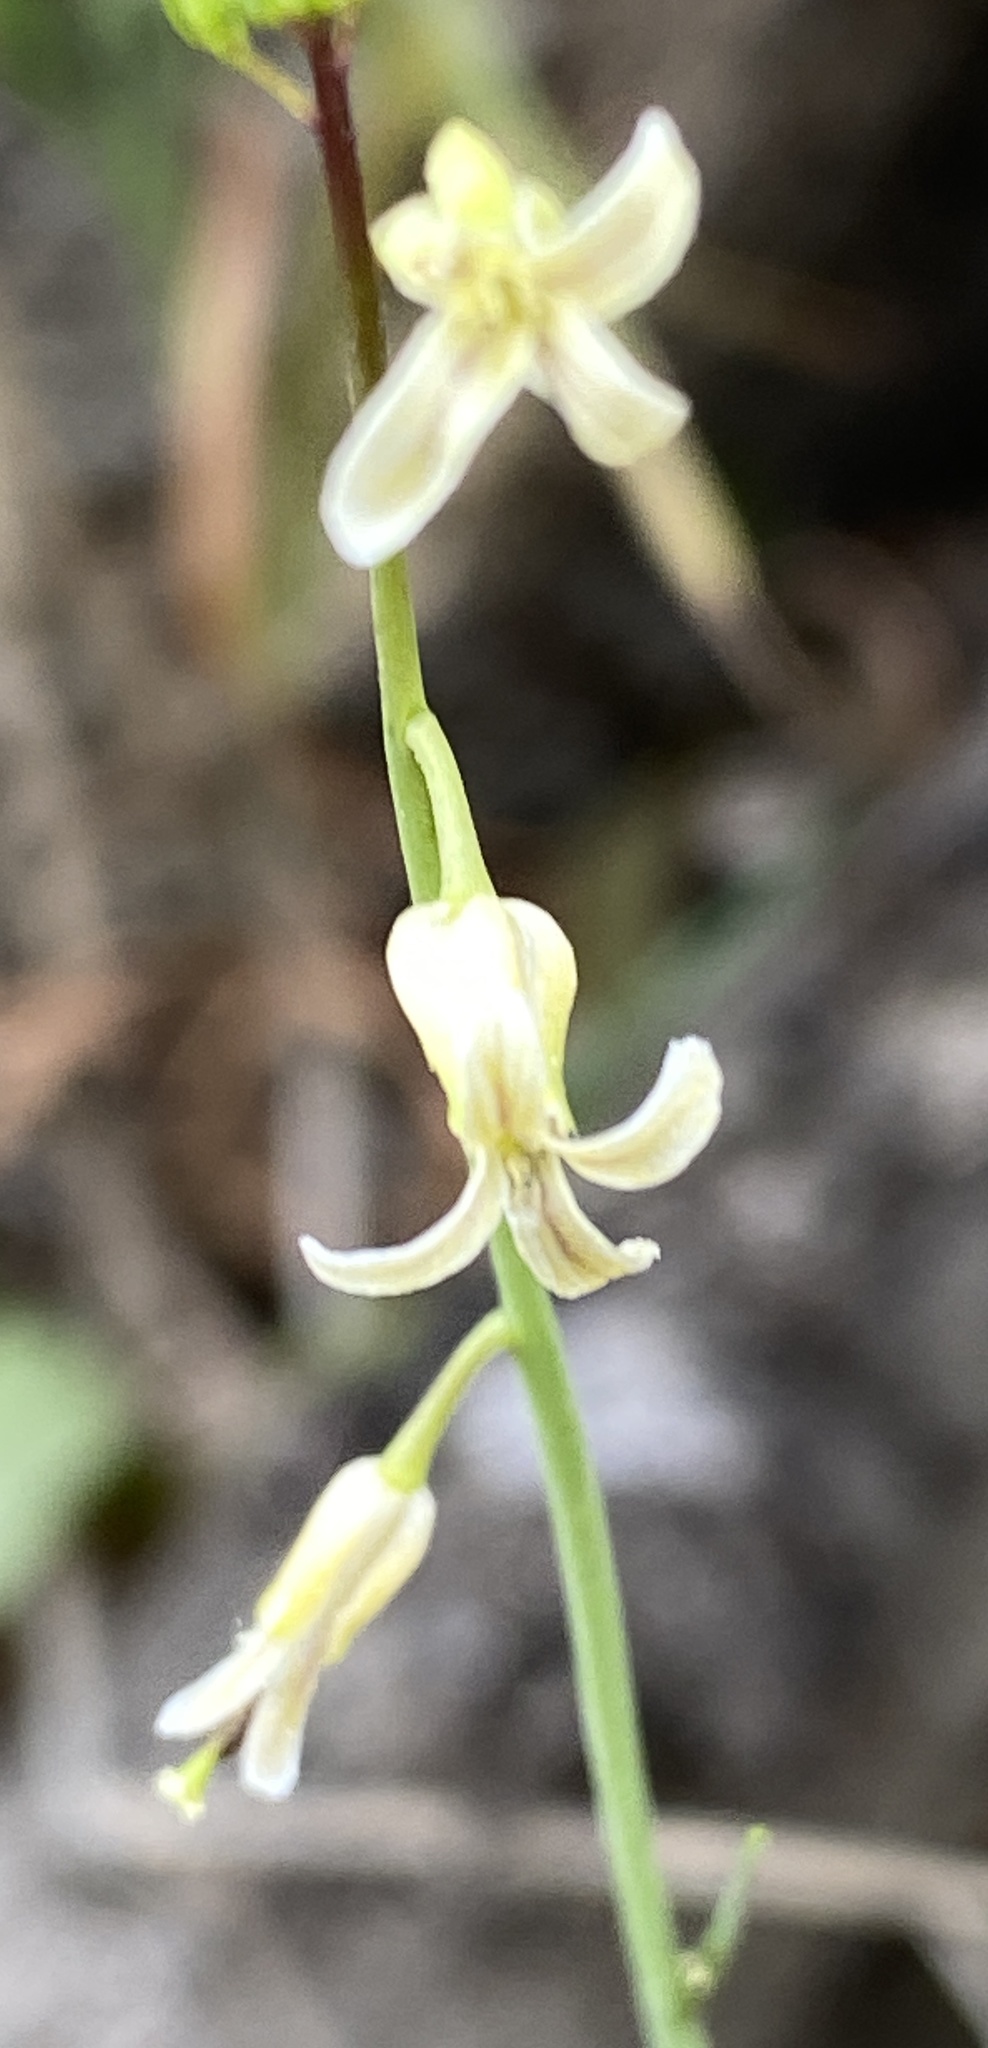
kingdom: Plantae
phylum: Tracheophyta
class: Magnoliopsida
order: Brassicales
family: Brassicaceae
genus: Streptanthus
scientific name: Streptanthus heterophyllus
